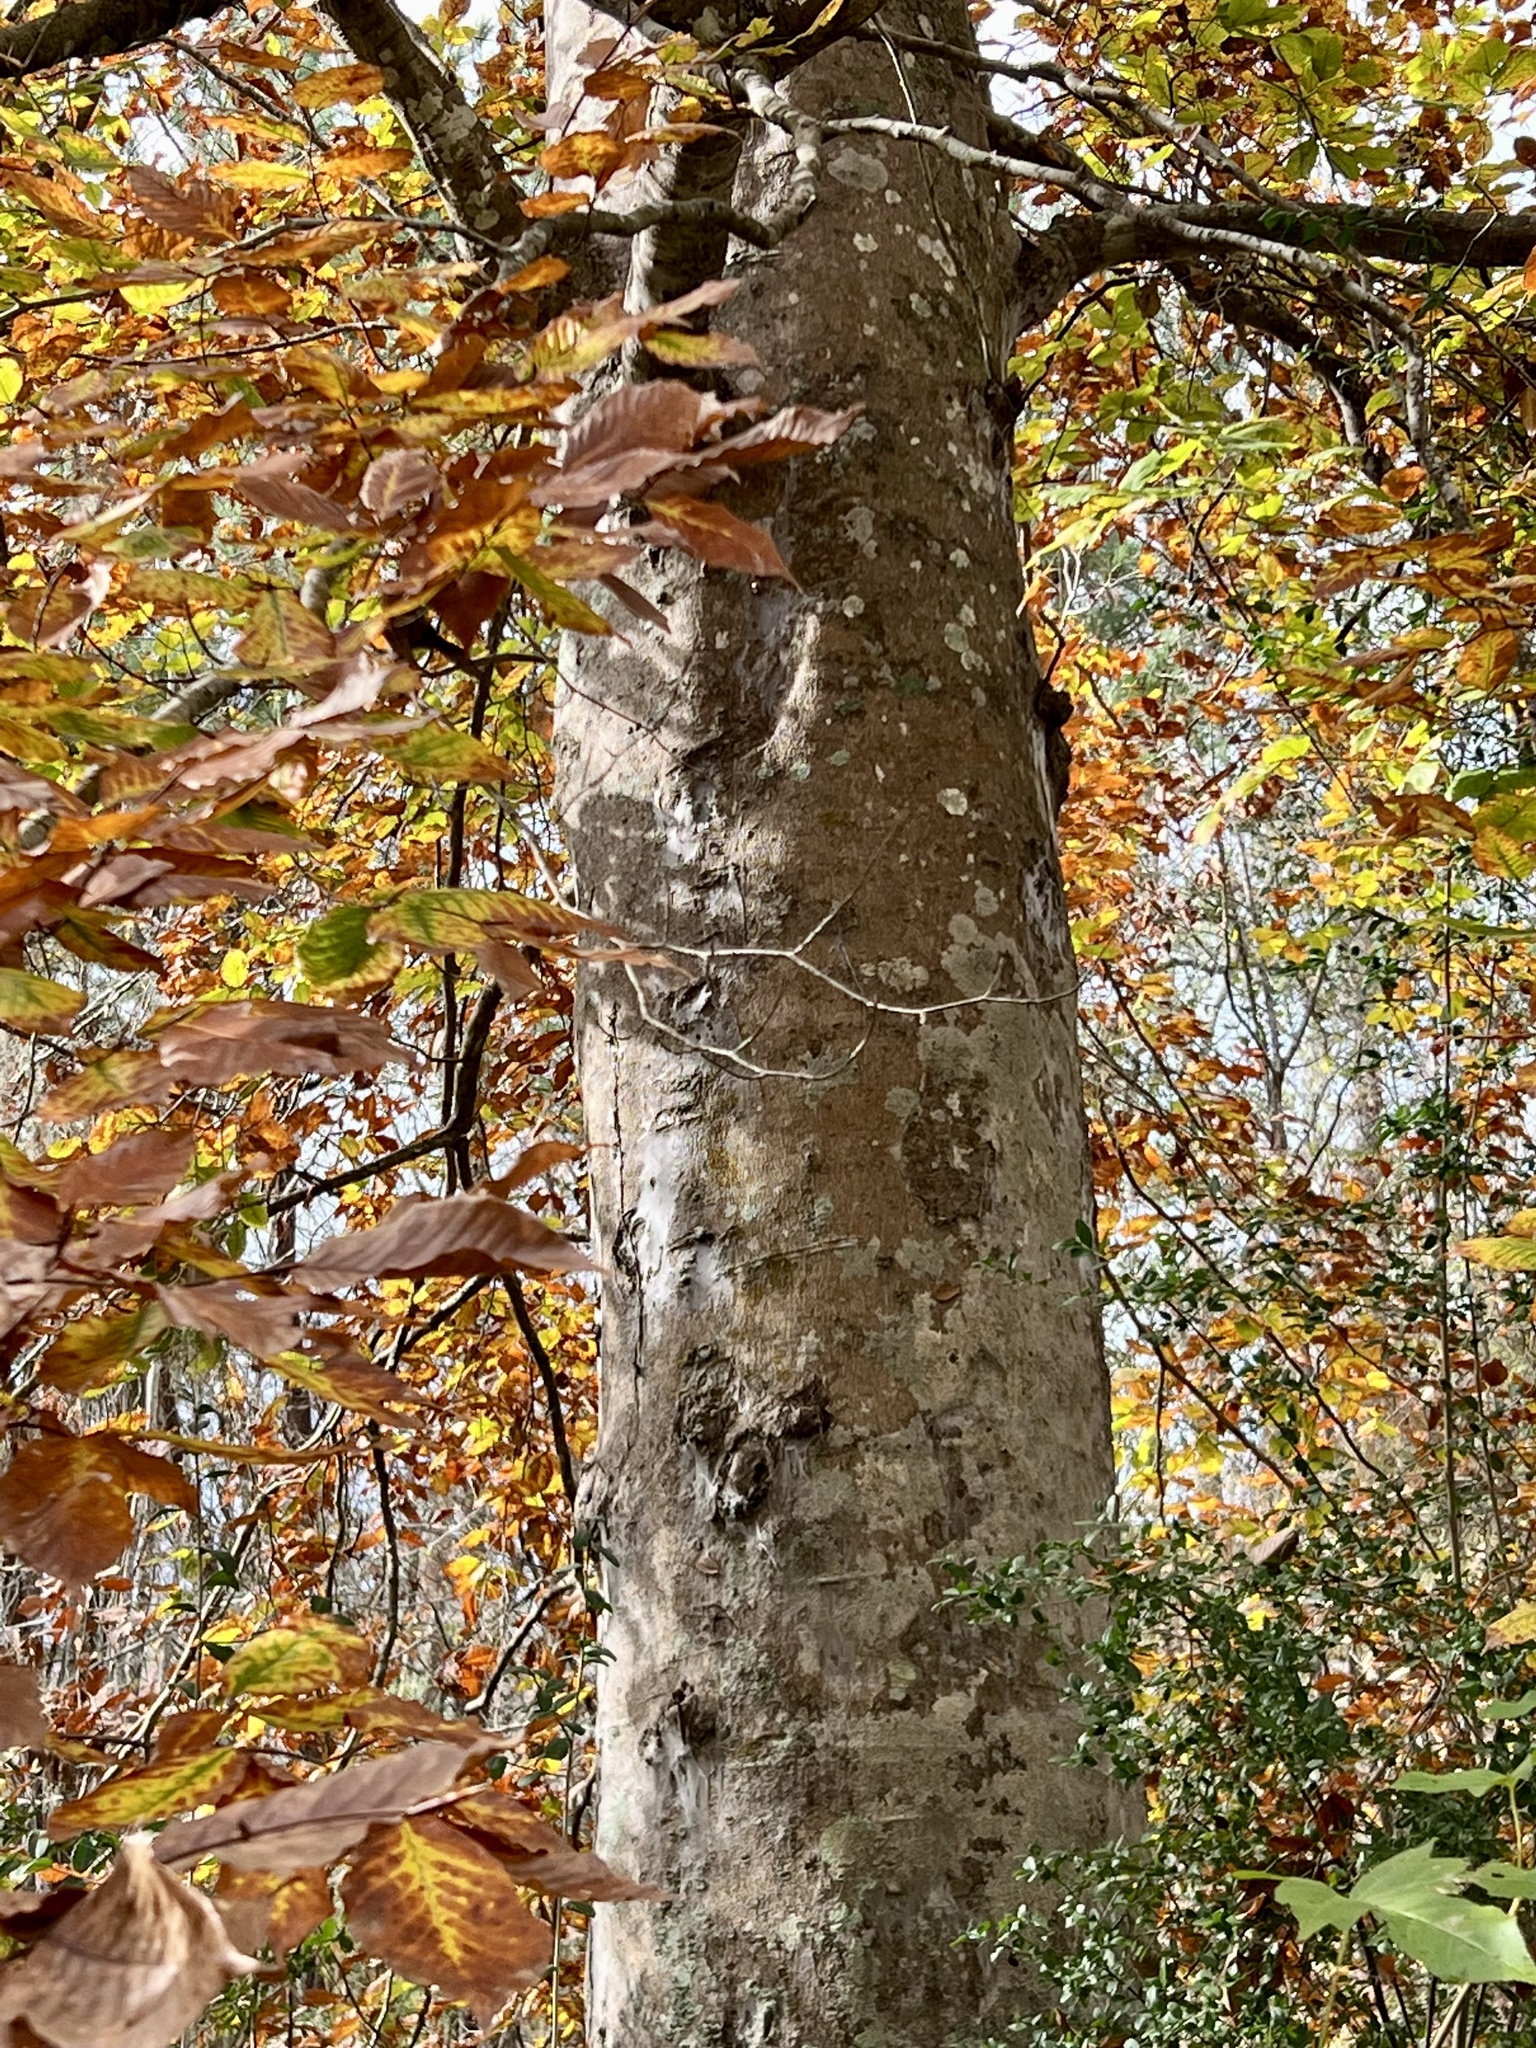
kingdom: Plantae
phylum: Tracheophyta
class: Magnoliopsida
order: Fagales
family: Fagaceae
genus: Fagus
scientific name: Fagus grandifolia
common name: American beech
